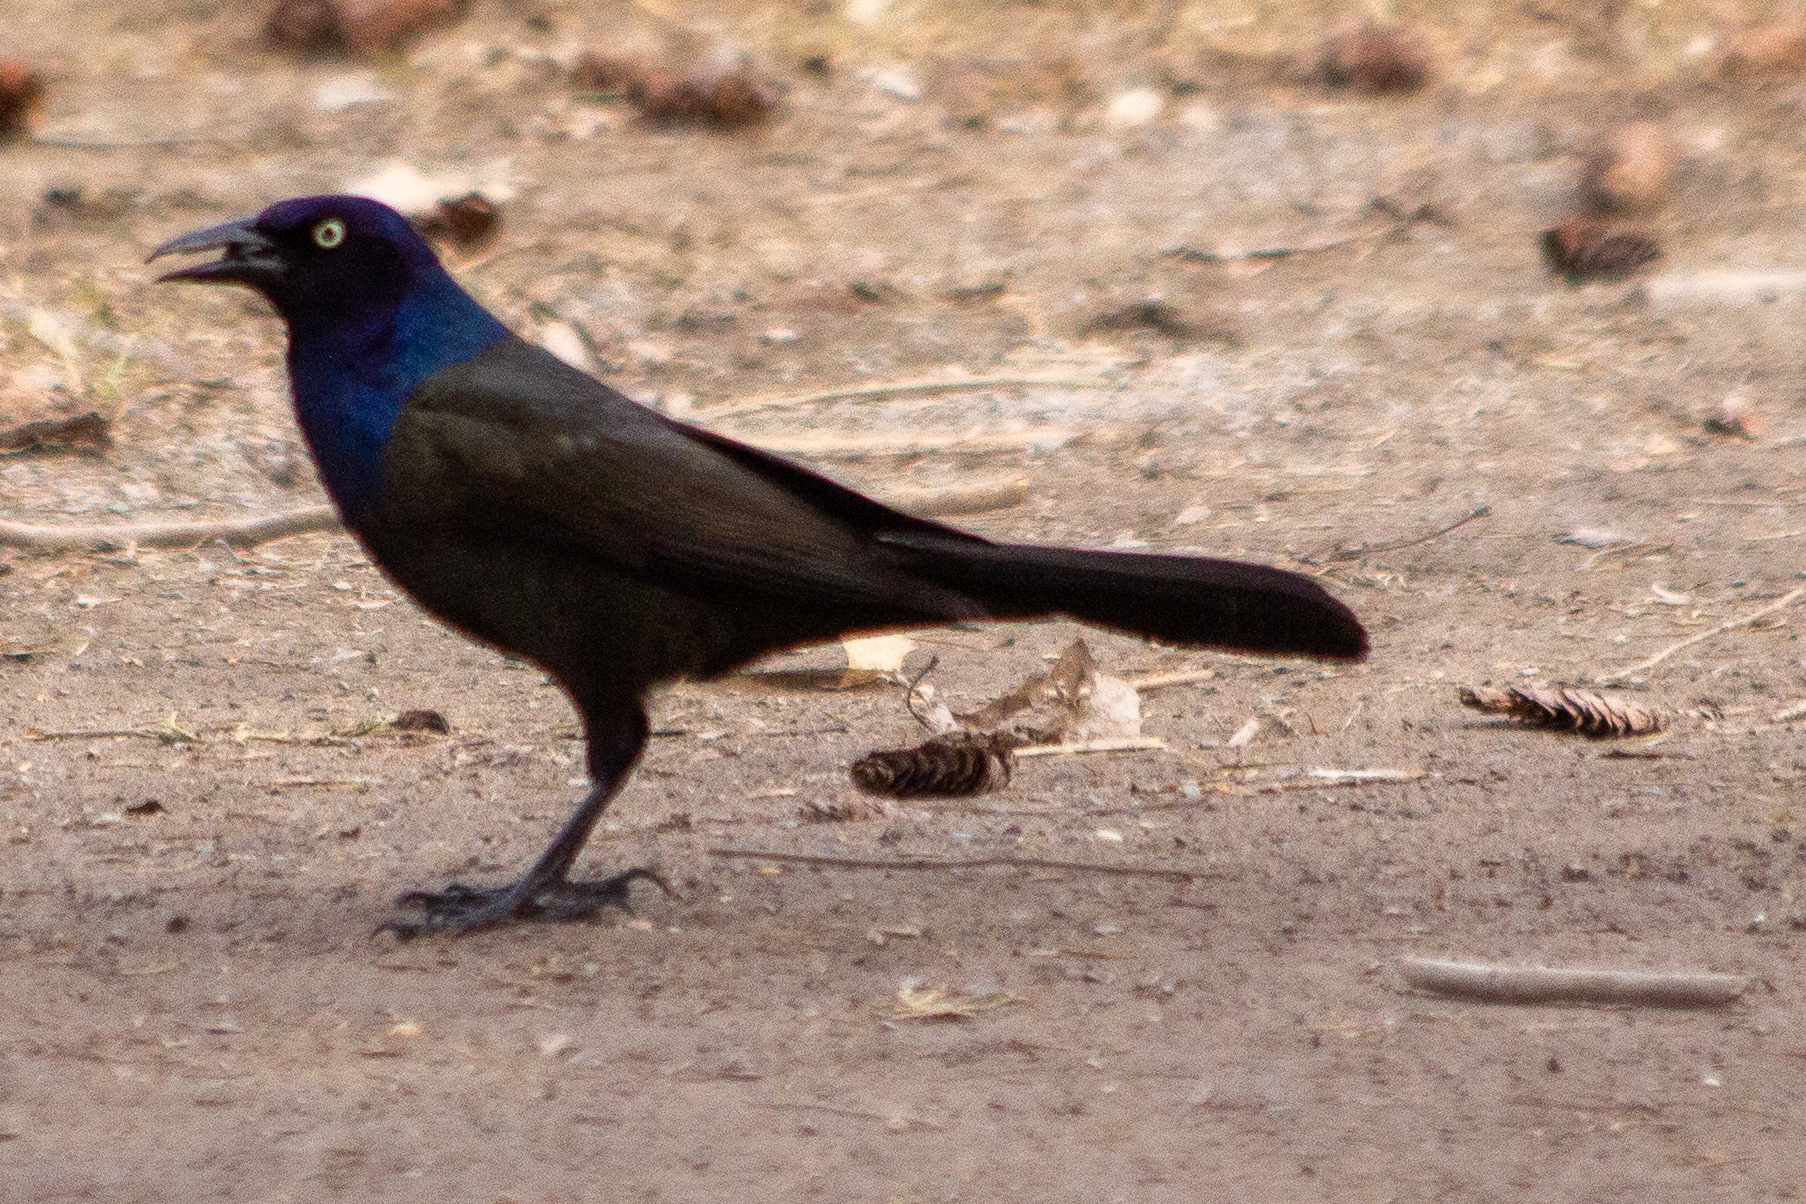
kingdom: Animalia
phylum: Chordata
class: Aves
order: Passeriformes
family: Icteridae
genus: Quiscalus
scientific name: Quiscalus quiscula
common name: Common grackle
